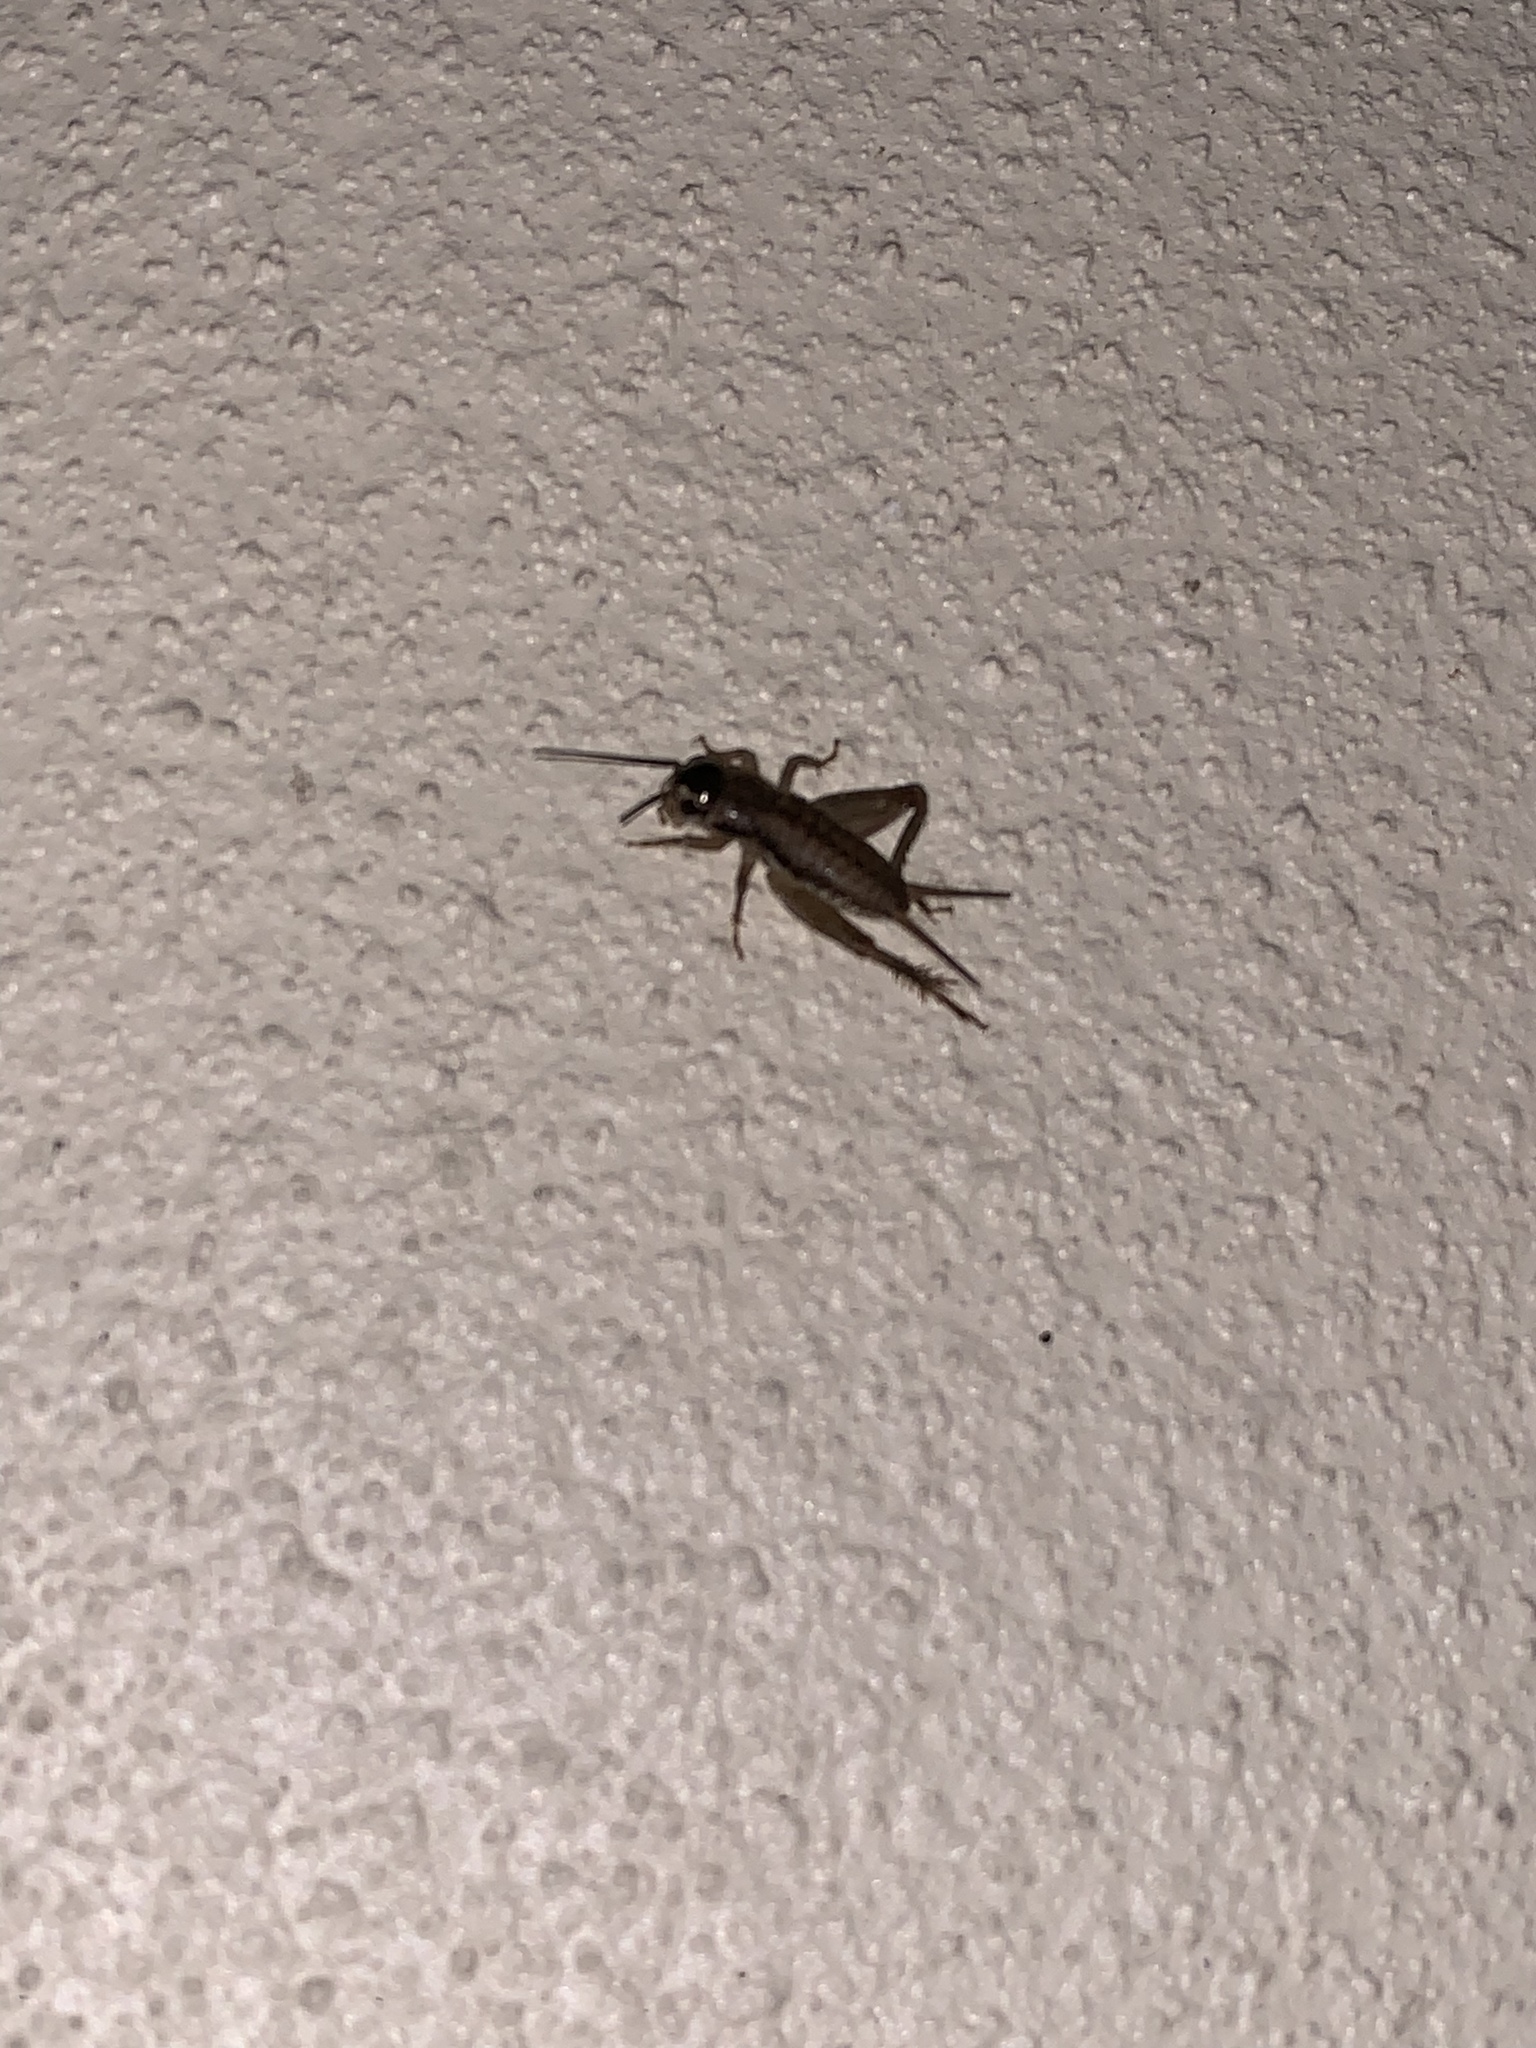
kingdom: Animalia
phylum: Arthropoda
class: Insecta
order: Orthoptera
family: Gryllidae
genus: Miogryllus
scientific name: Miogryllus verticalis
